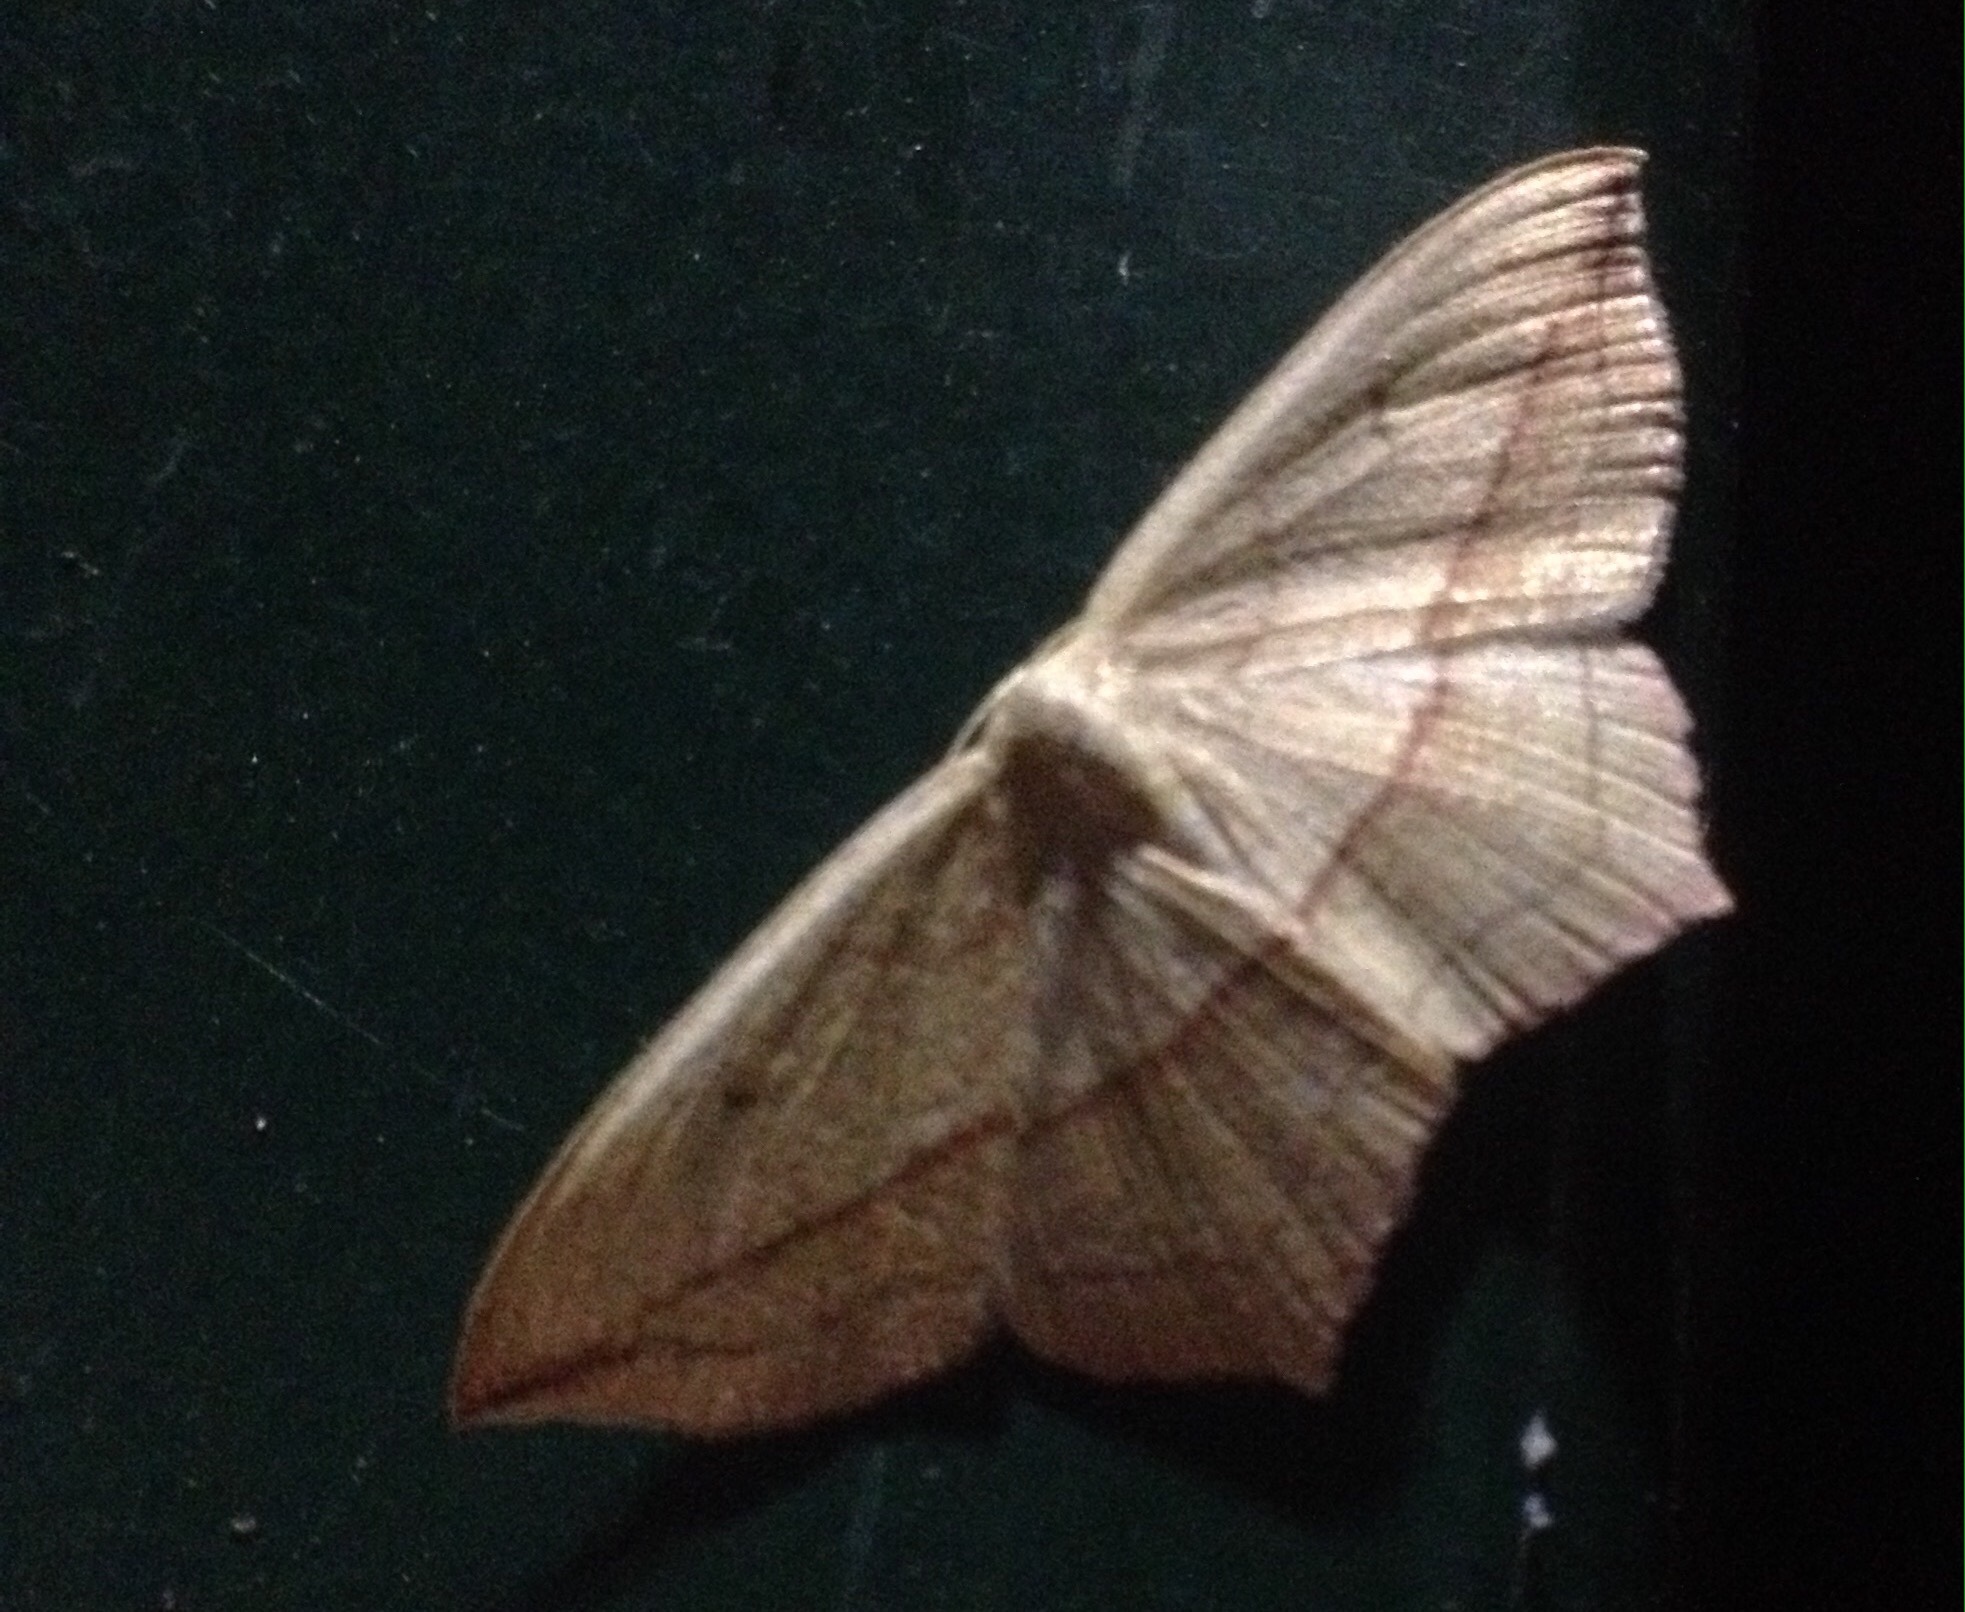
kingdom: Animalia
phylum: Arthropoda
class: Insecta
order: Lepidoptera
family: Geometridae
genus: Timandra
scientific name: Timandra comae
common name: Blood-vein
